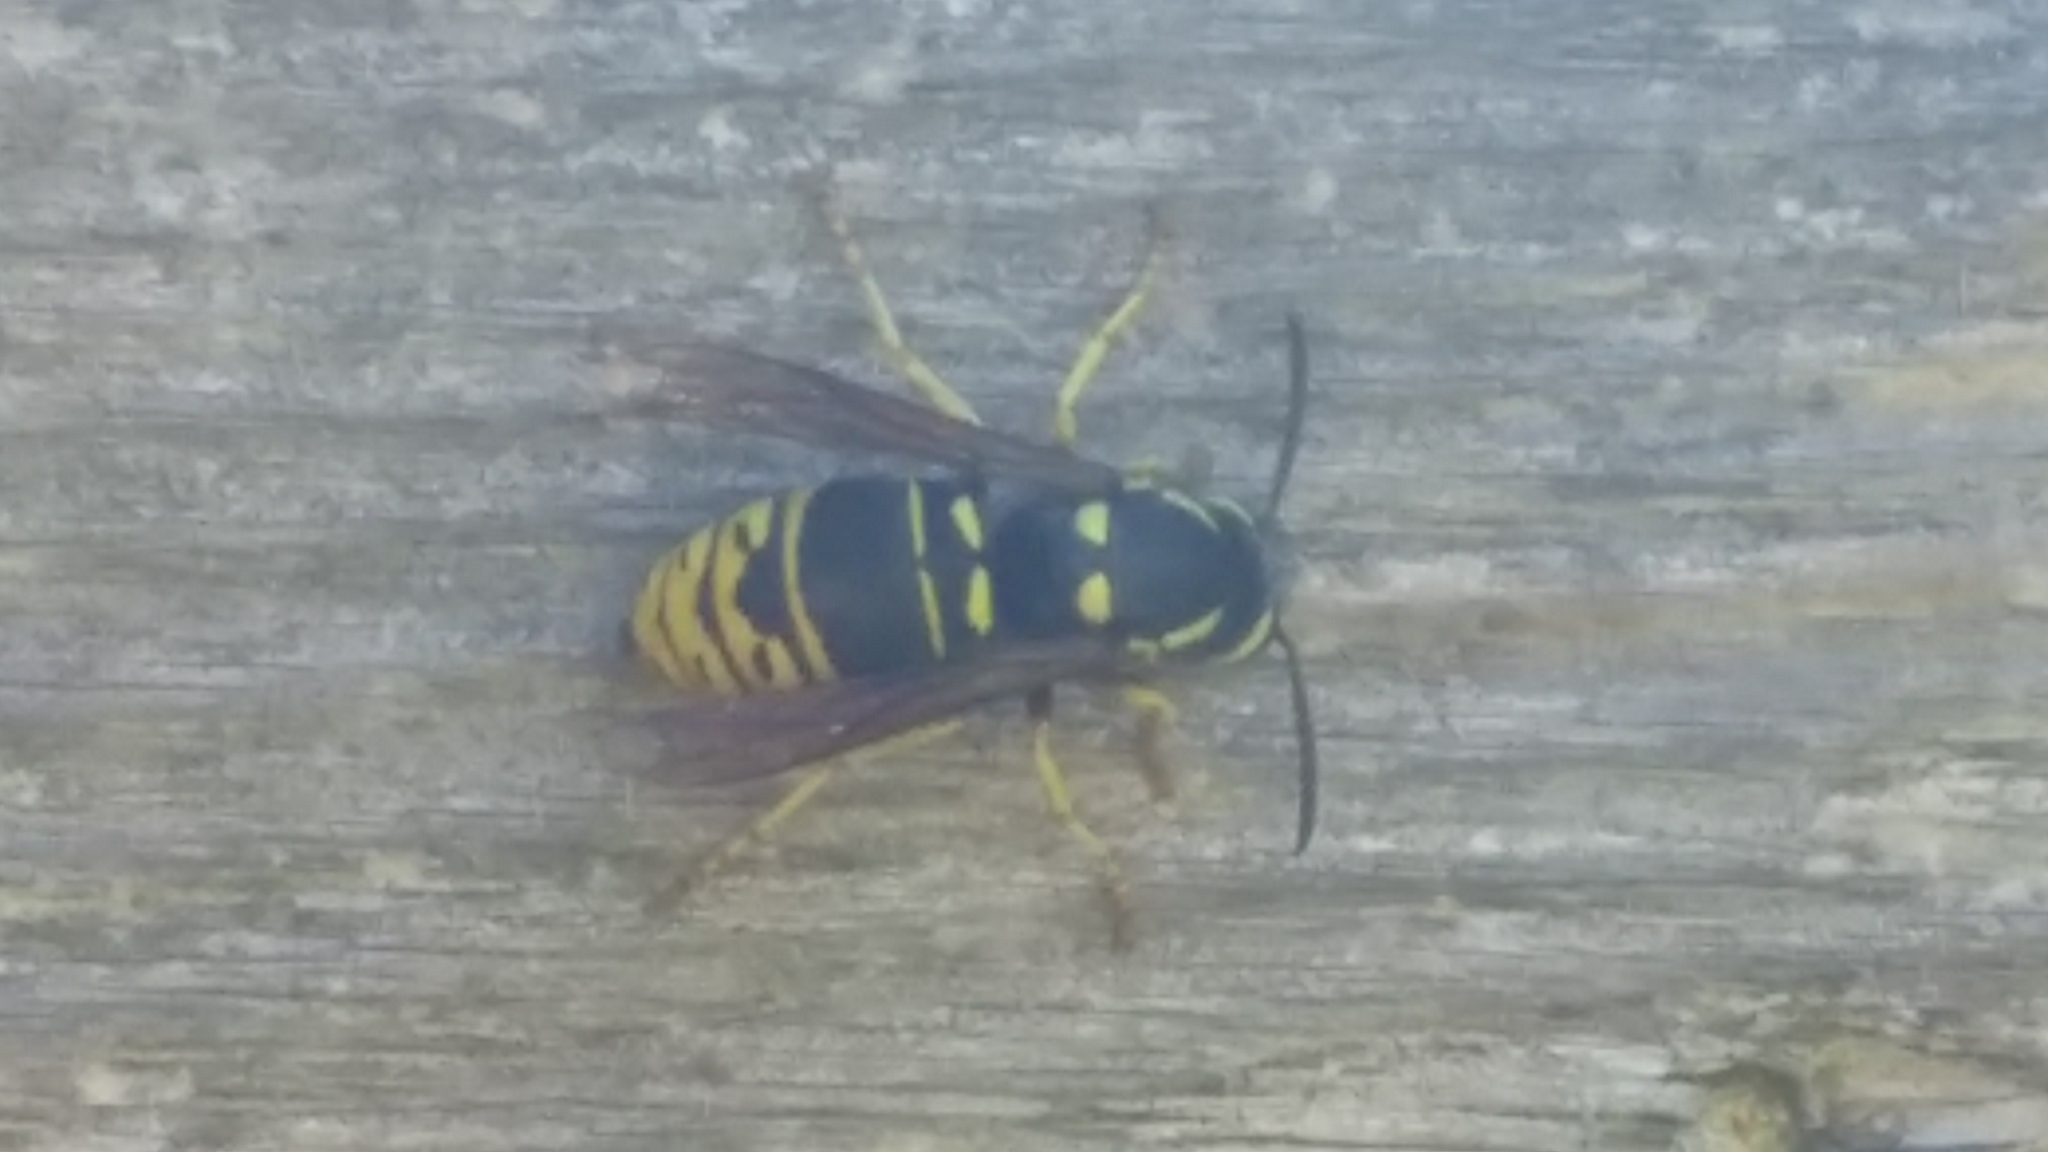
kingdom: Animalia
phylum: Arthropoda
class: Insecta
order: Hymenoptera
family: Vespidae
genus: Vespula
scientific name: Vespula vidua
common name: Widow yellowjacket
